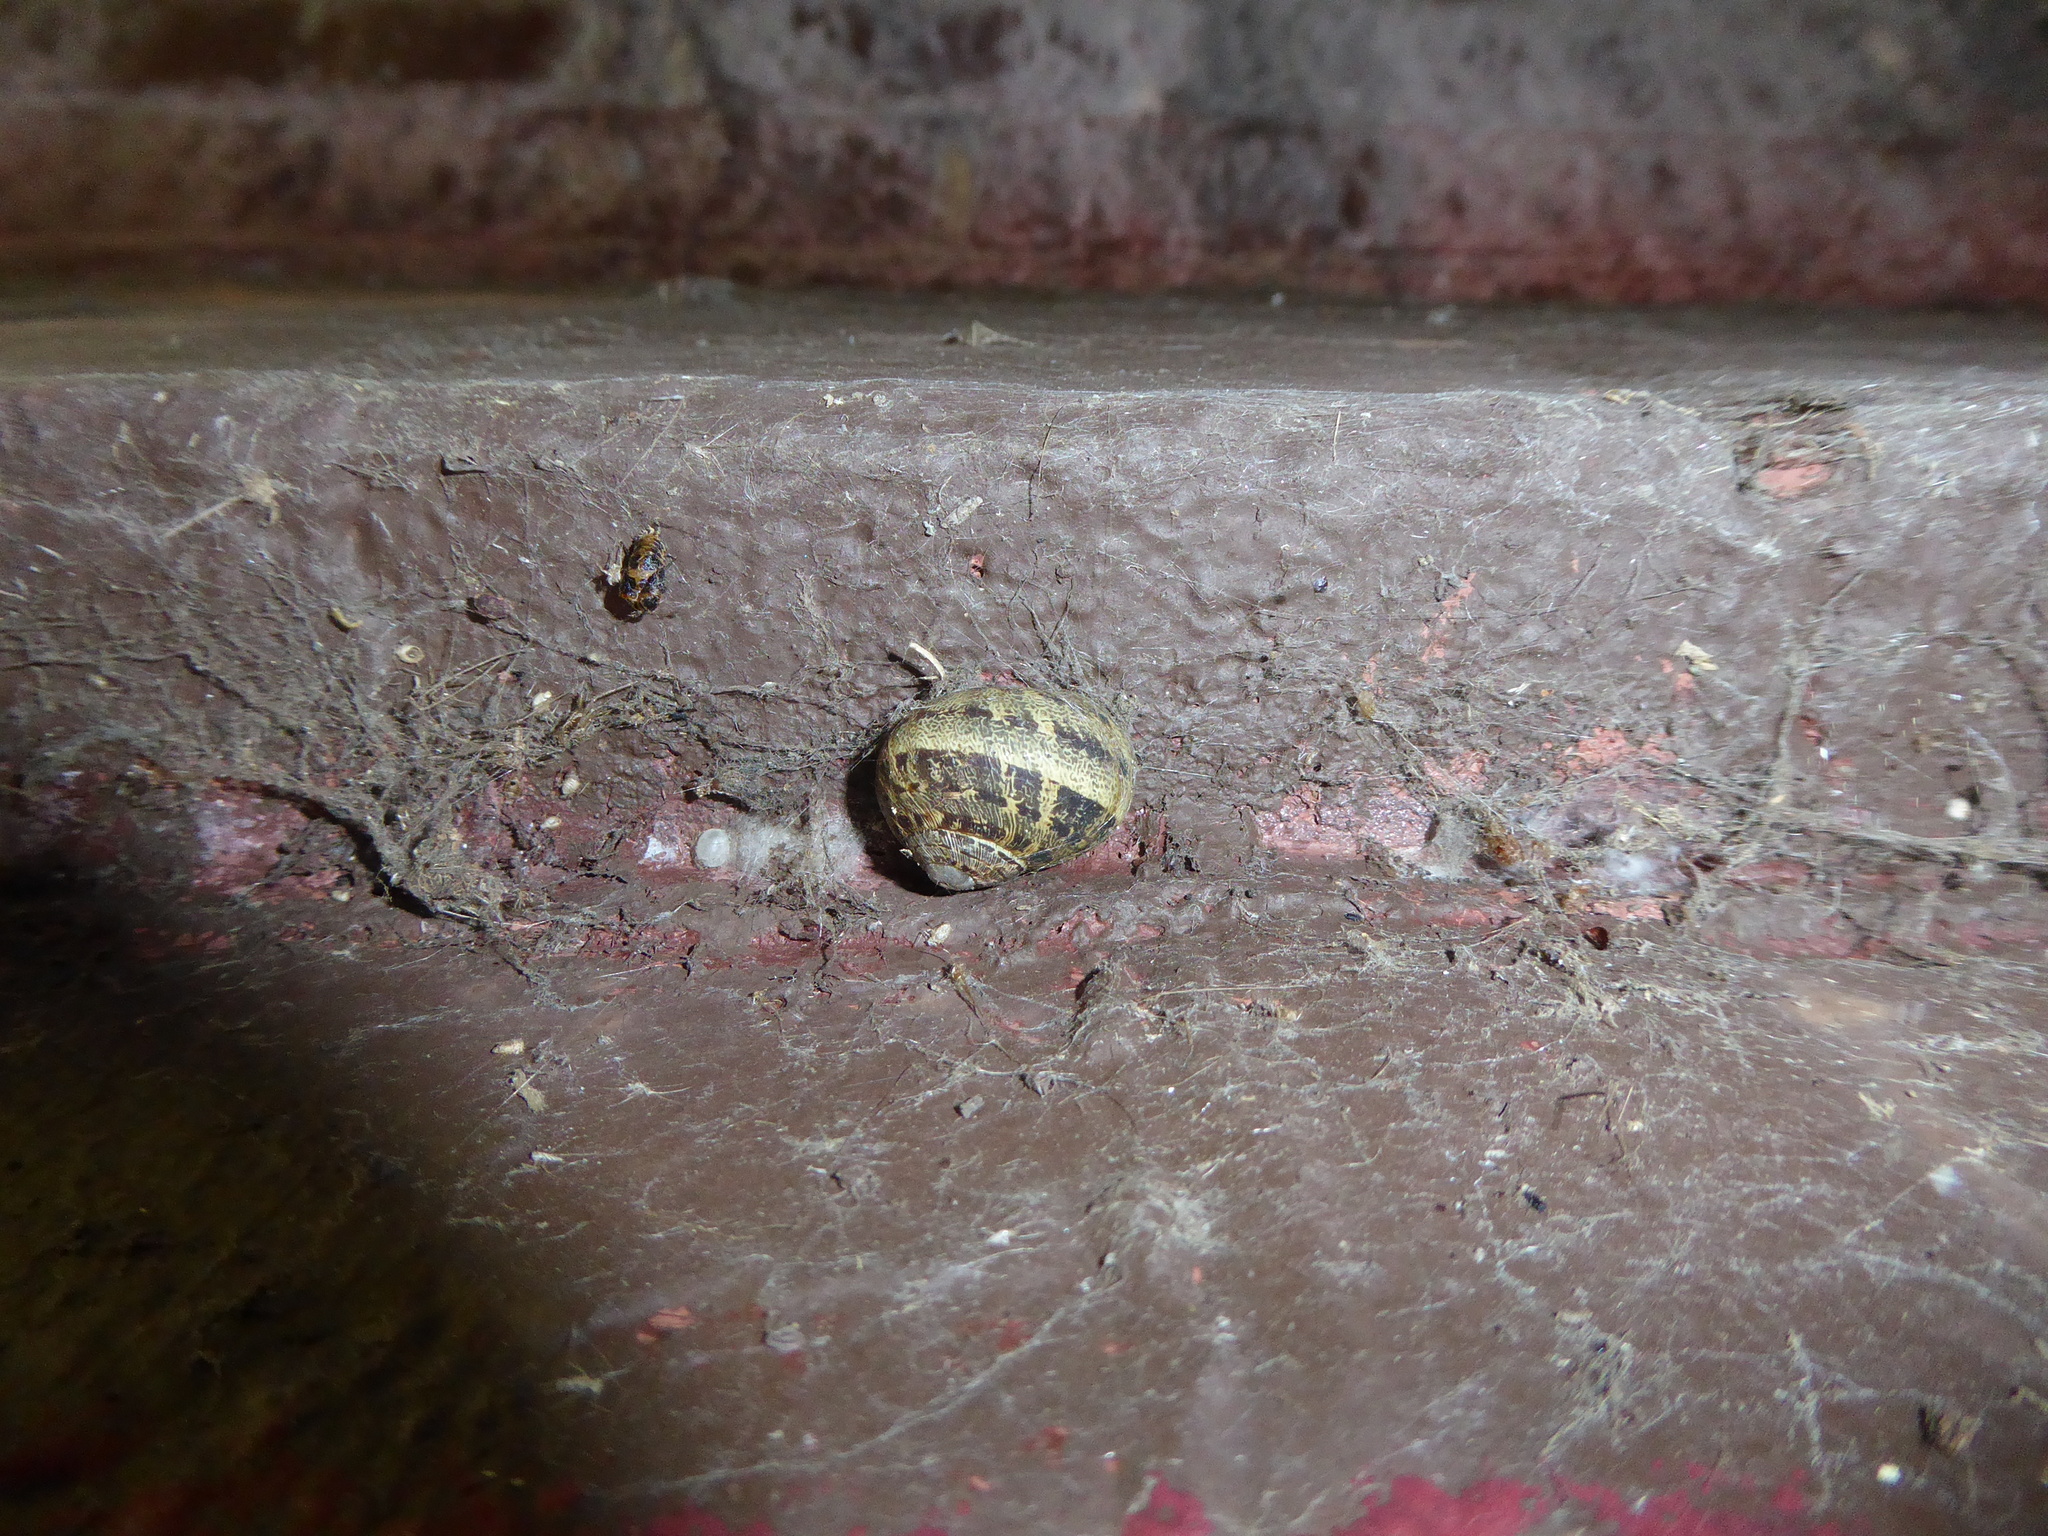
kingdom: Animalia
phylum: Mollusca
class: Gastropoda
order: Stylommatophora
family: Helicidae
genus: Cornu
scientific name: Cornu aspersum
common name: Brown garden snail
